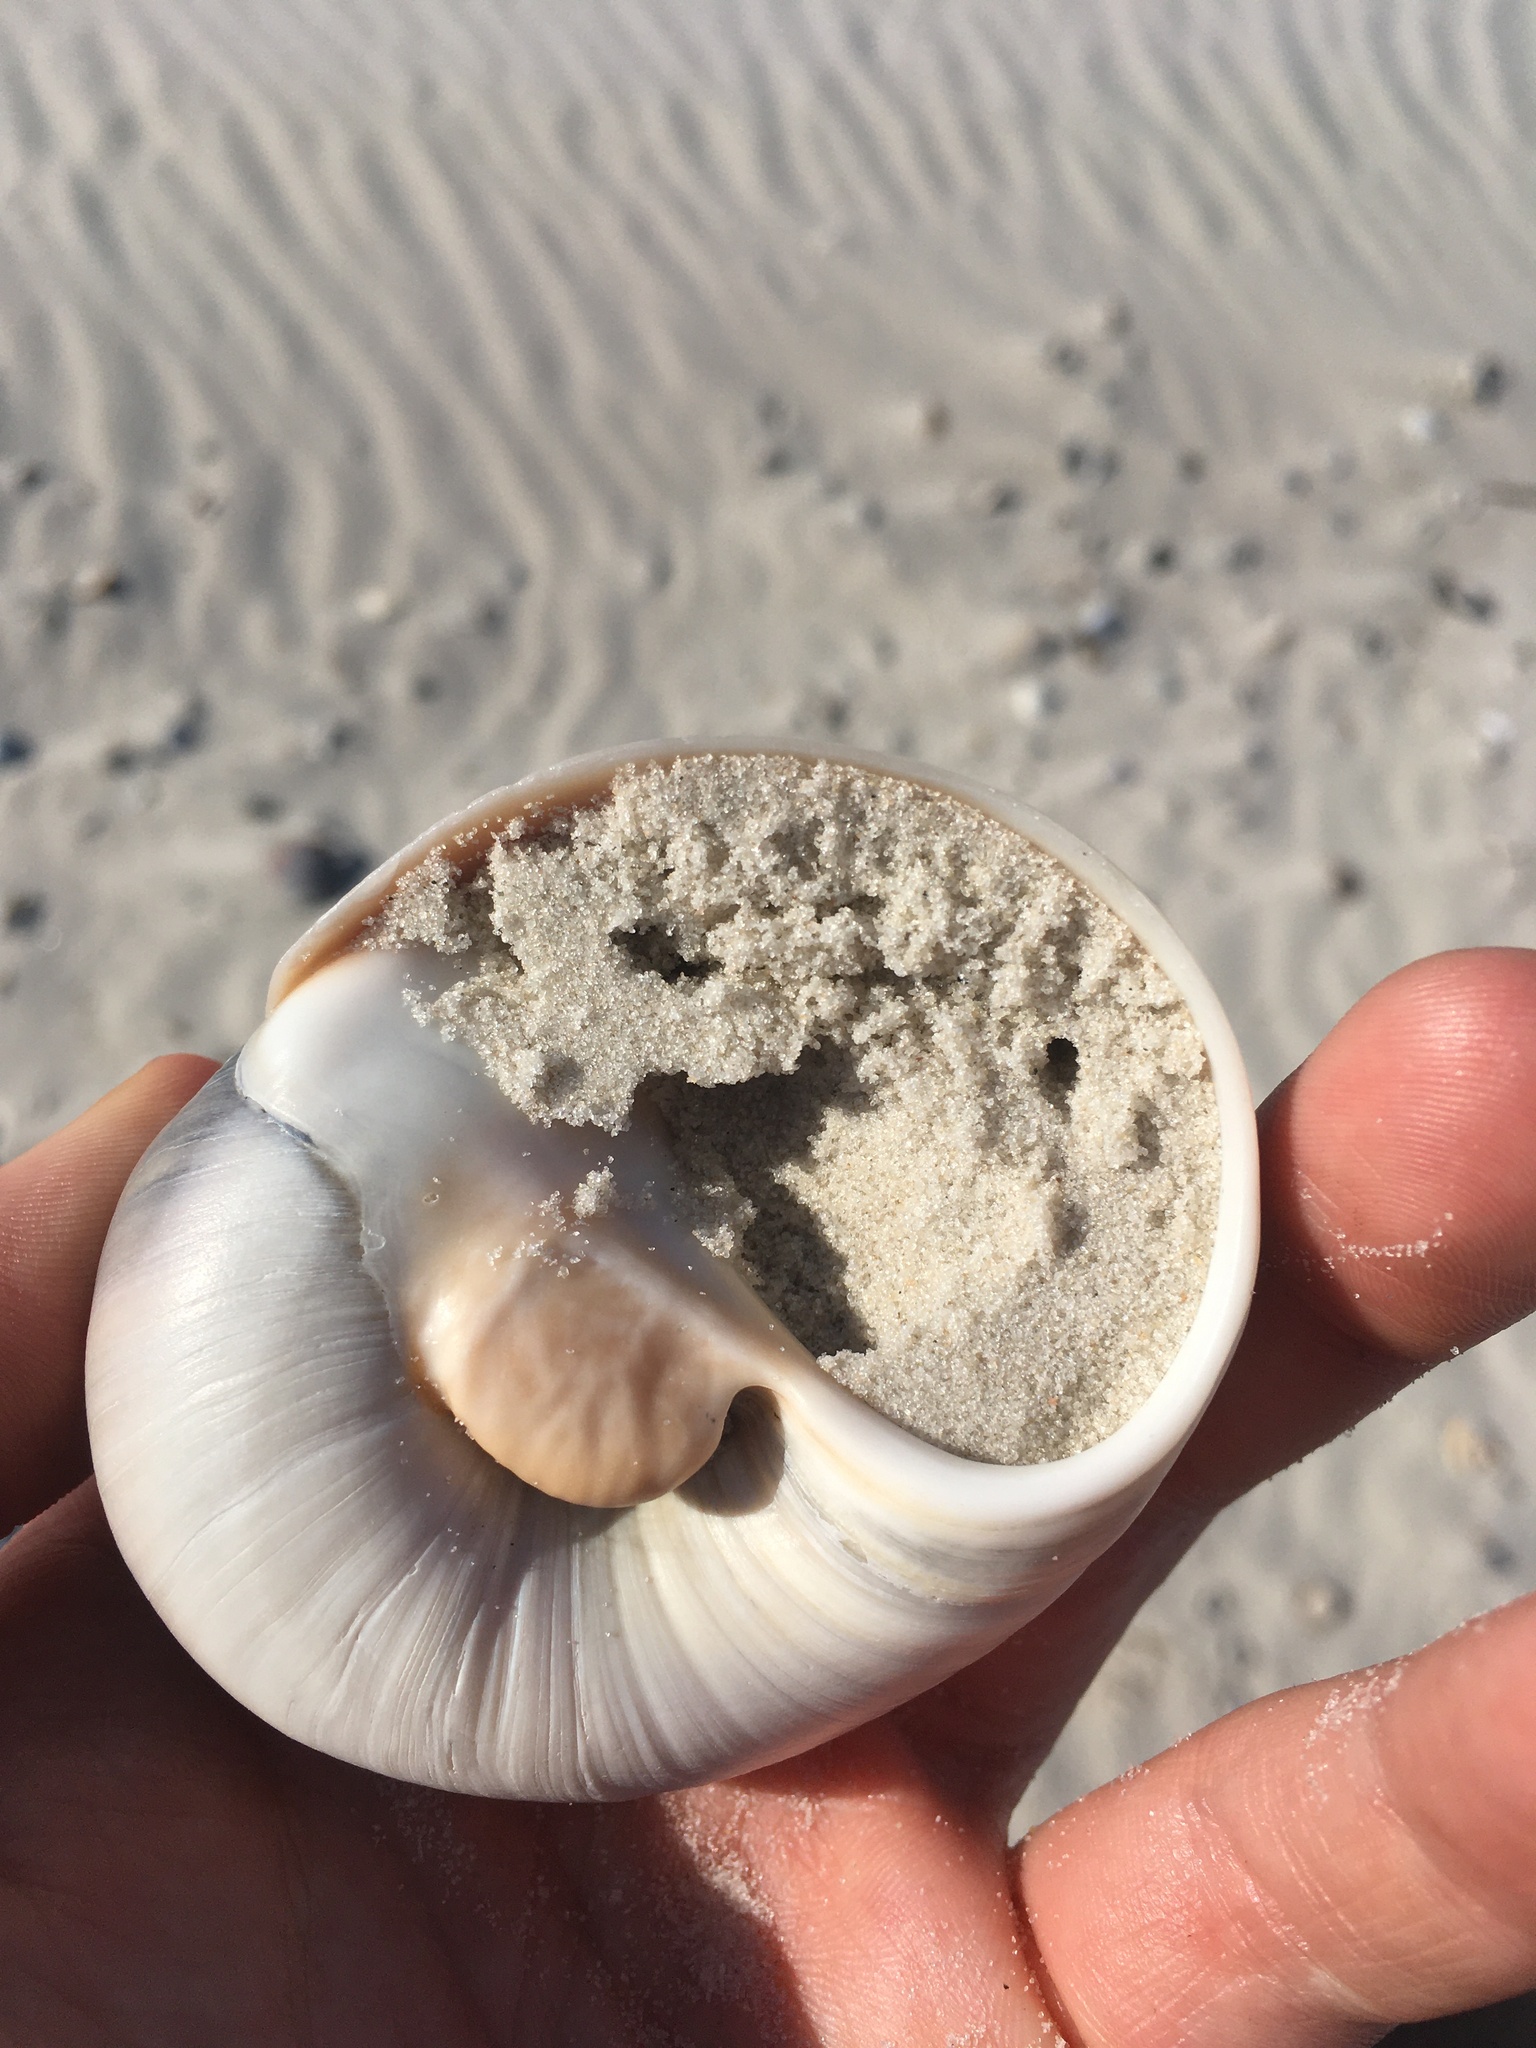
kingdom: Animalia
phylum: Mollusca
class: Gastropoda
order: Littorinimorpha
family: Naticidae
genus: Neverita
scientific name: Neverita duplicata
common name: Lobed moonsnail
